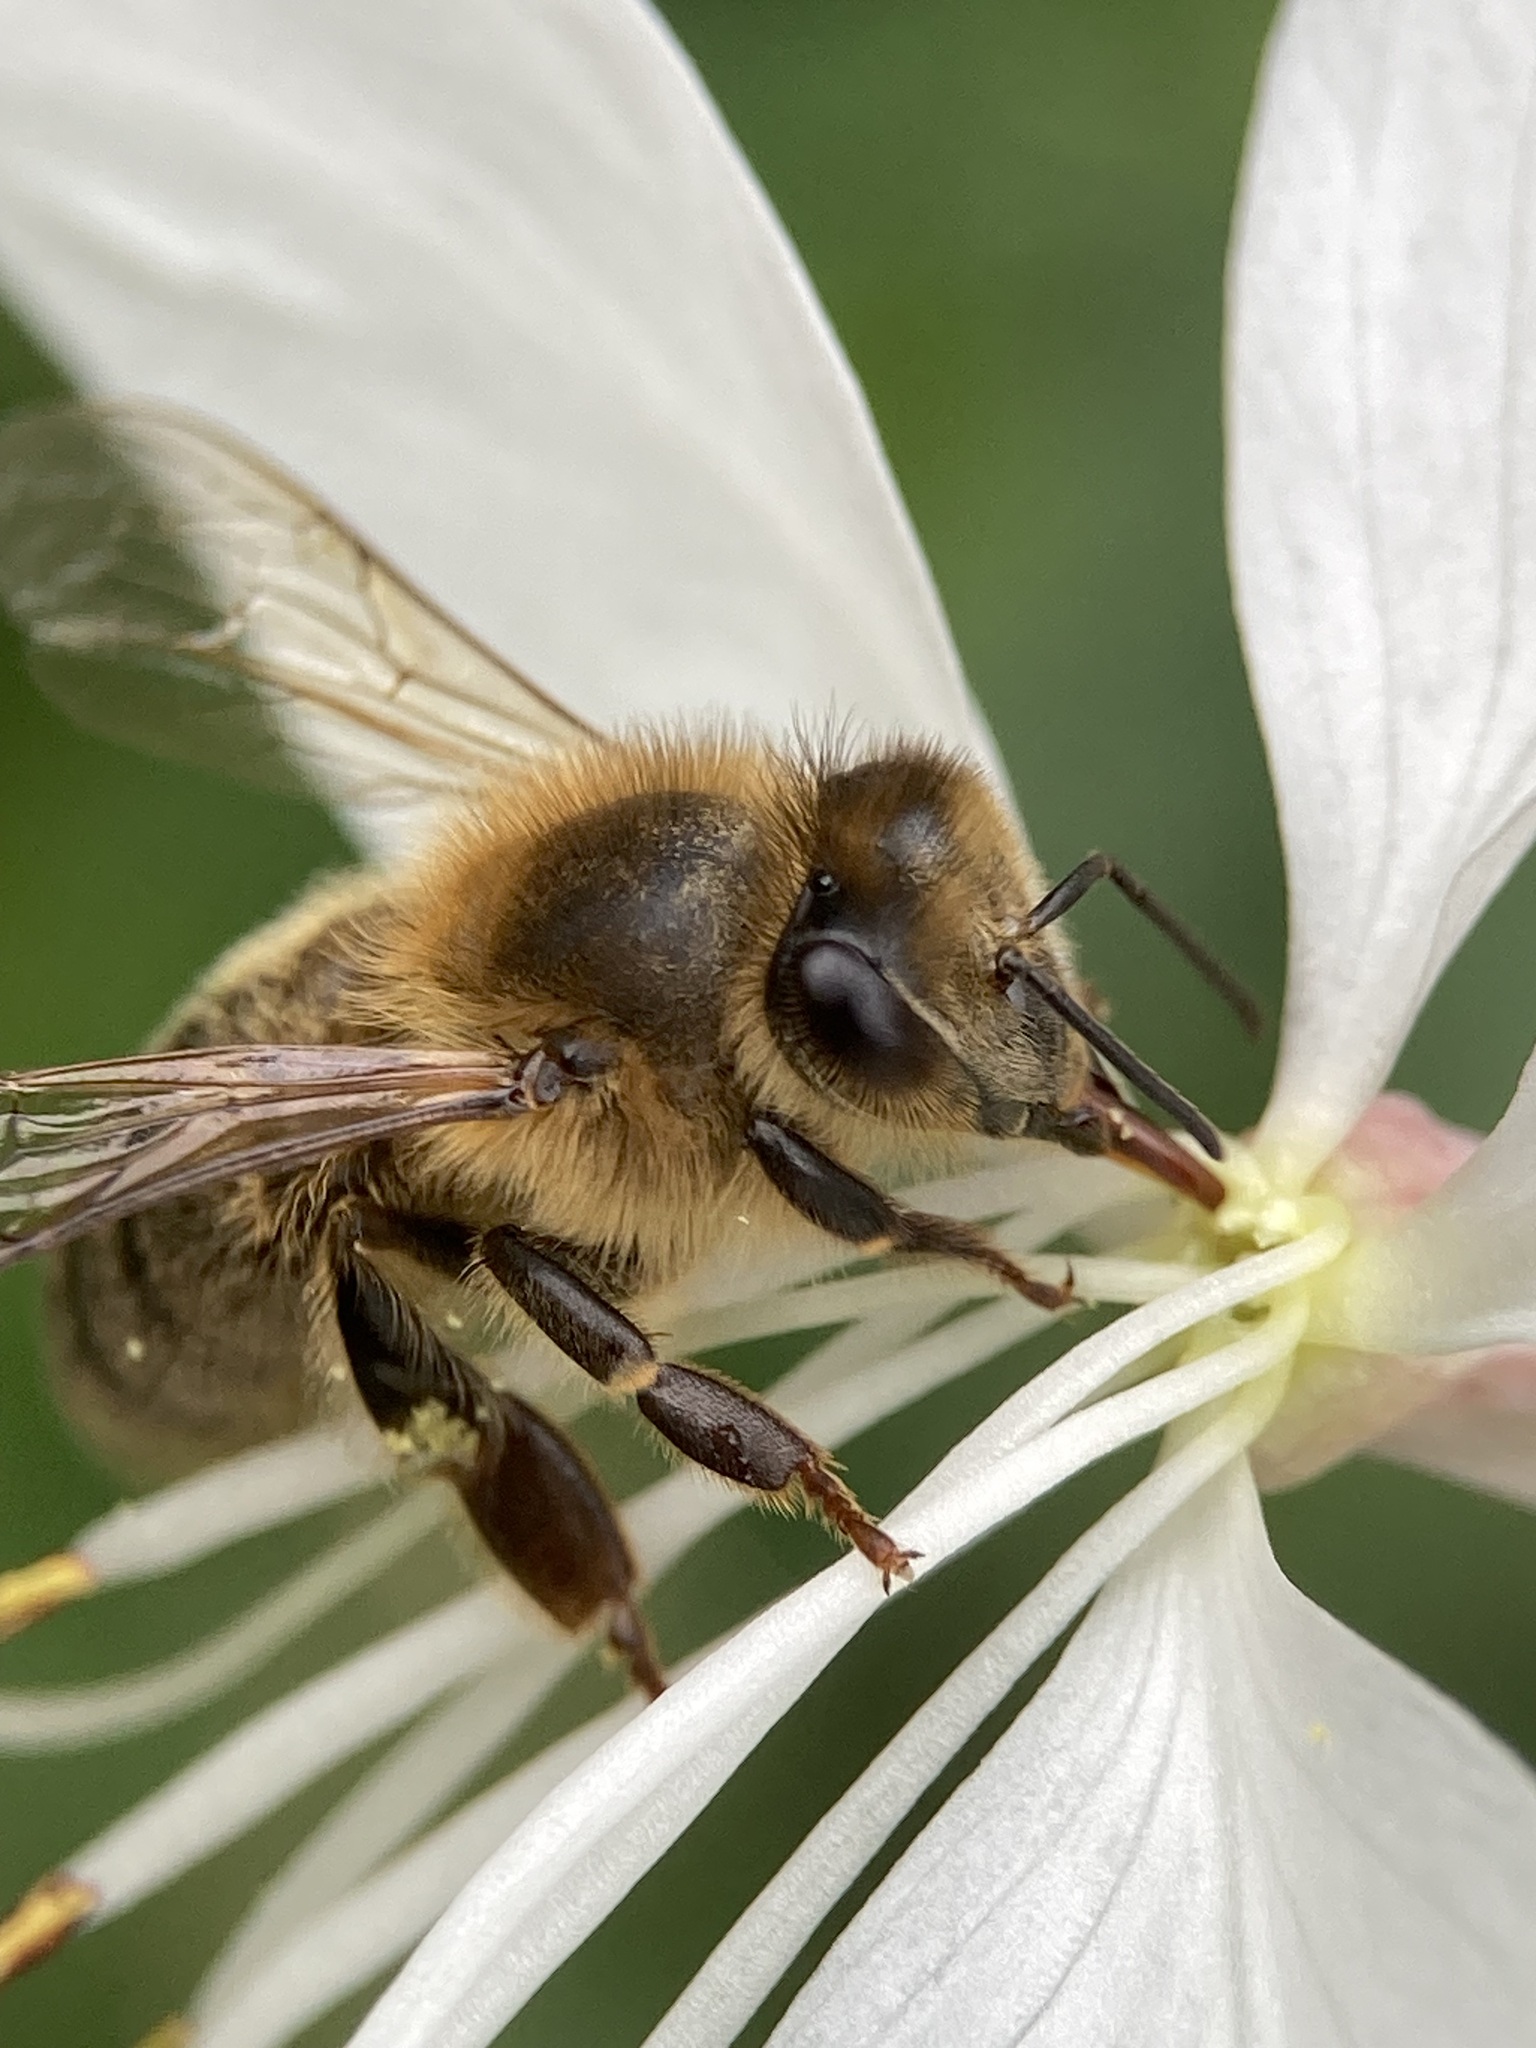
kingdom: Animalia
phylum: Arthropoda
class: Insecta
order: Hymenoptera
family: Apidae
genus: Apis
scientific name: Apis mellifera
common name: Honey bee
